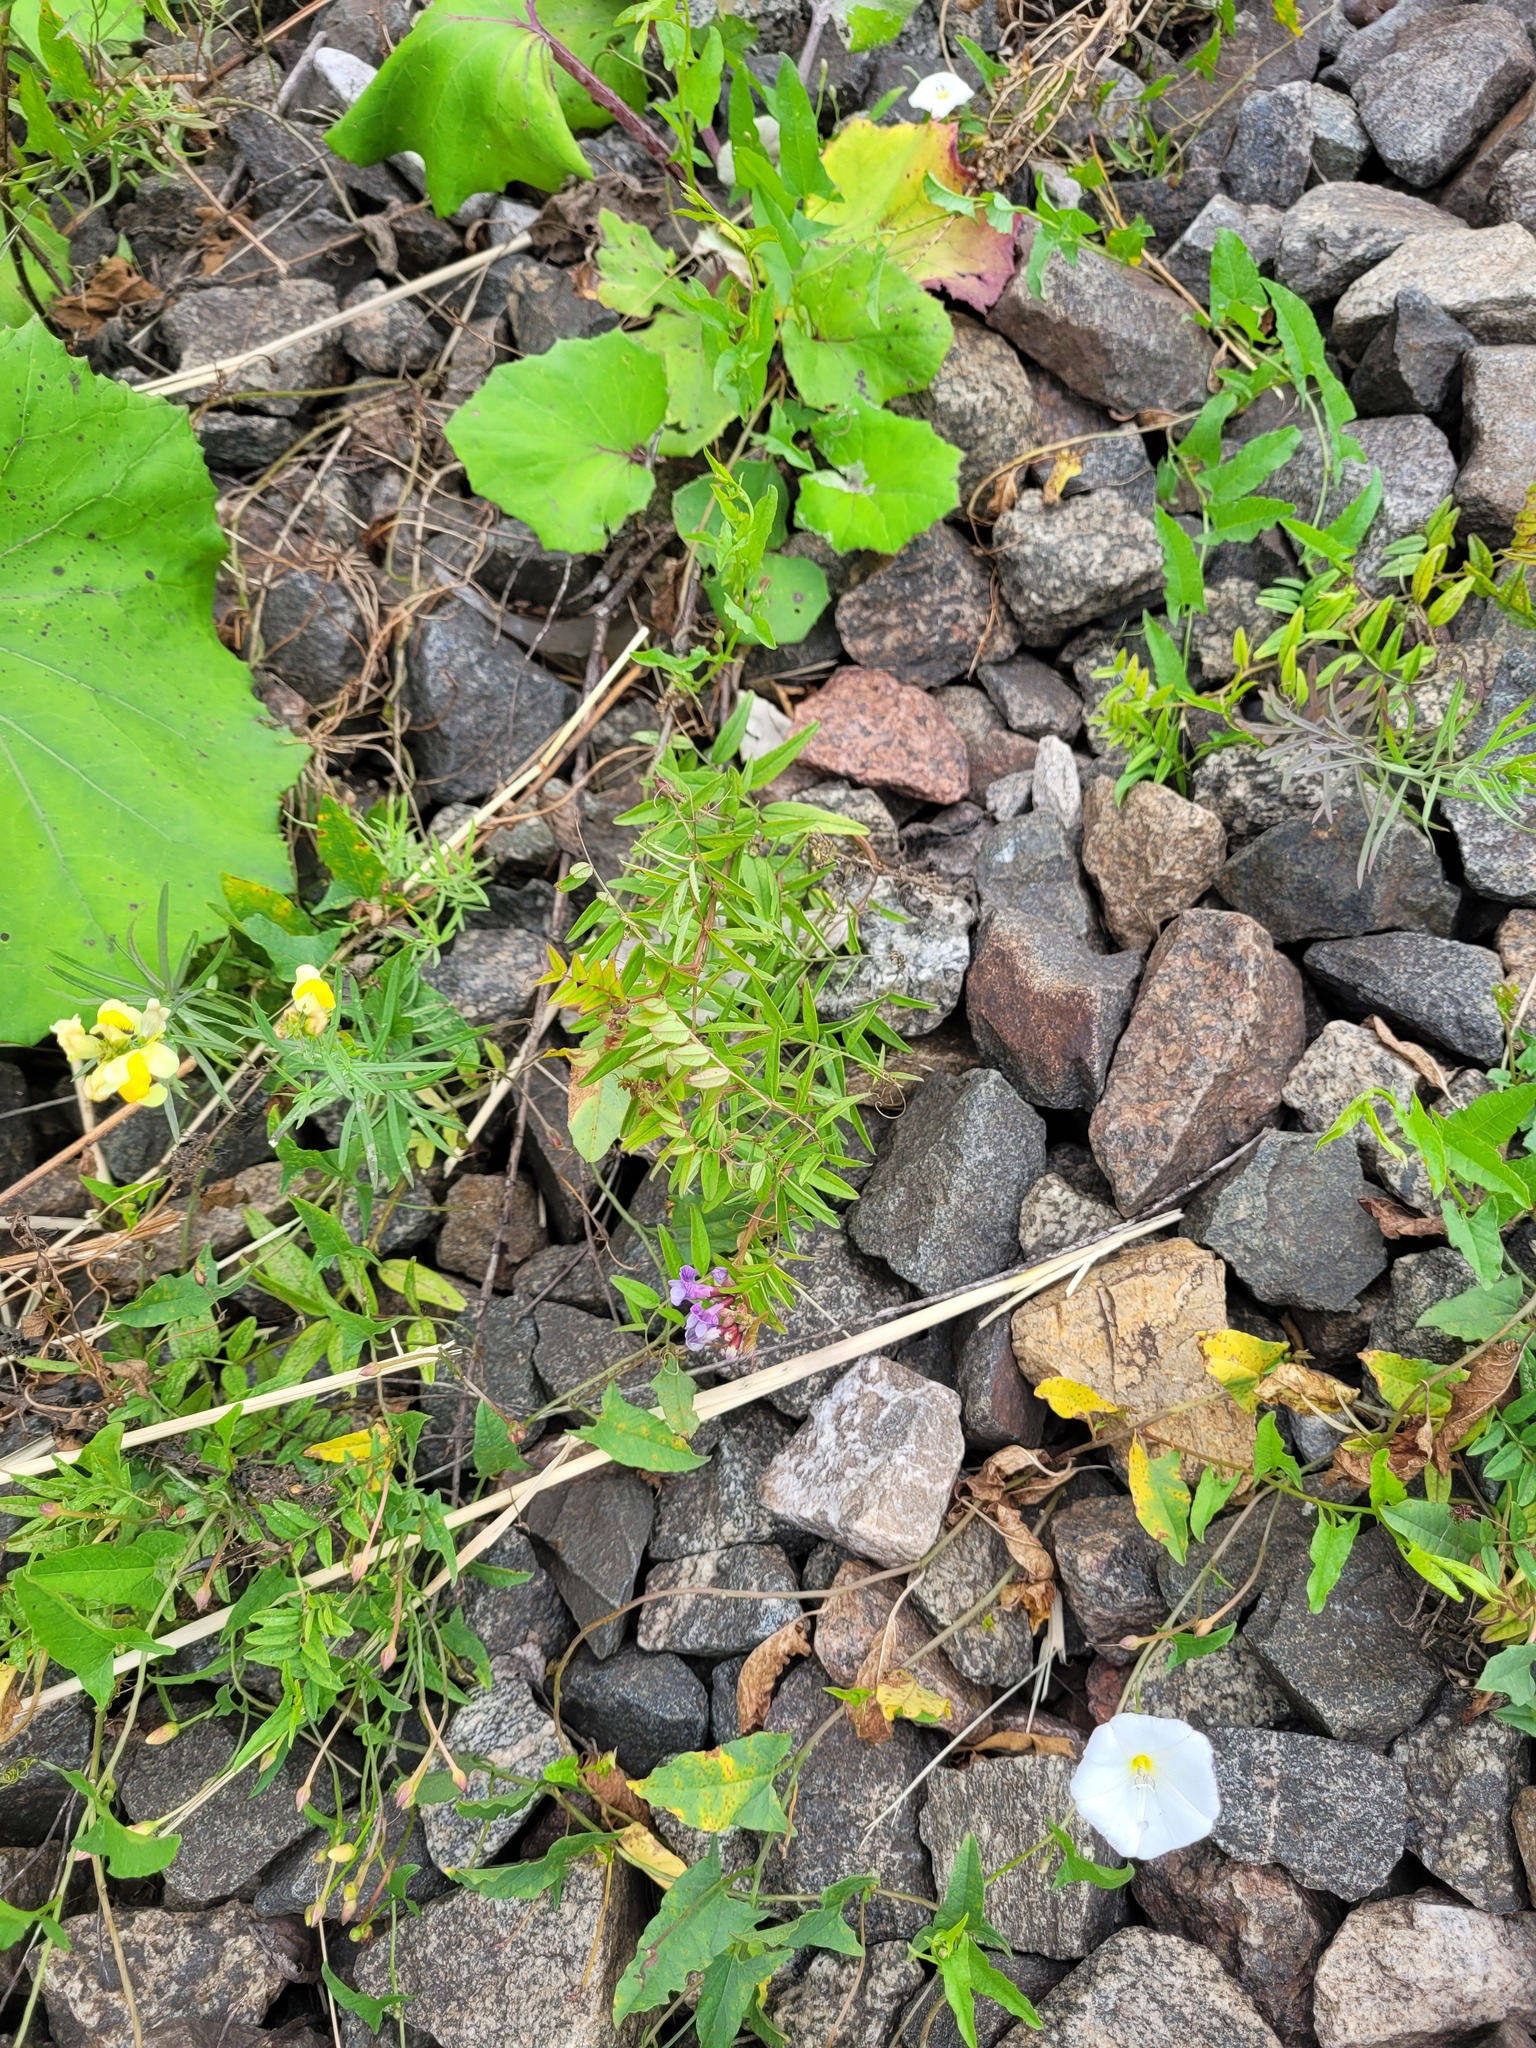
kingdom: Plantae
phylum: Tracheophyta
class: Magnoliopsida
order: Fabales
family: Fabaceae
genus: Vicia
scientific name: Vicia sepium
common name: Bush vetch
